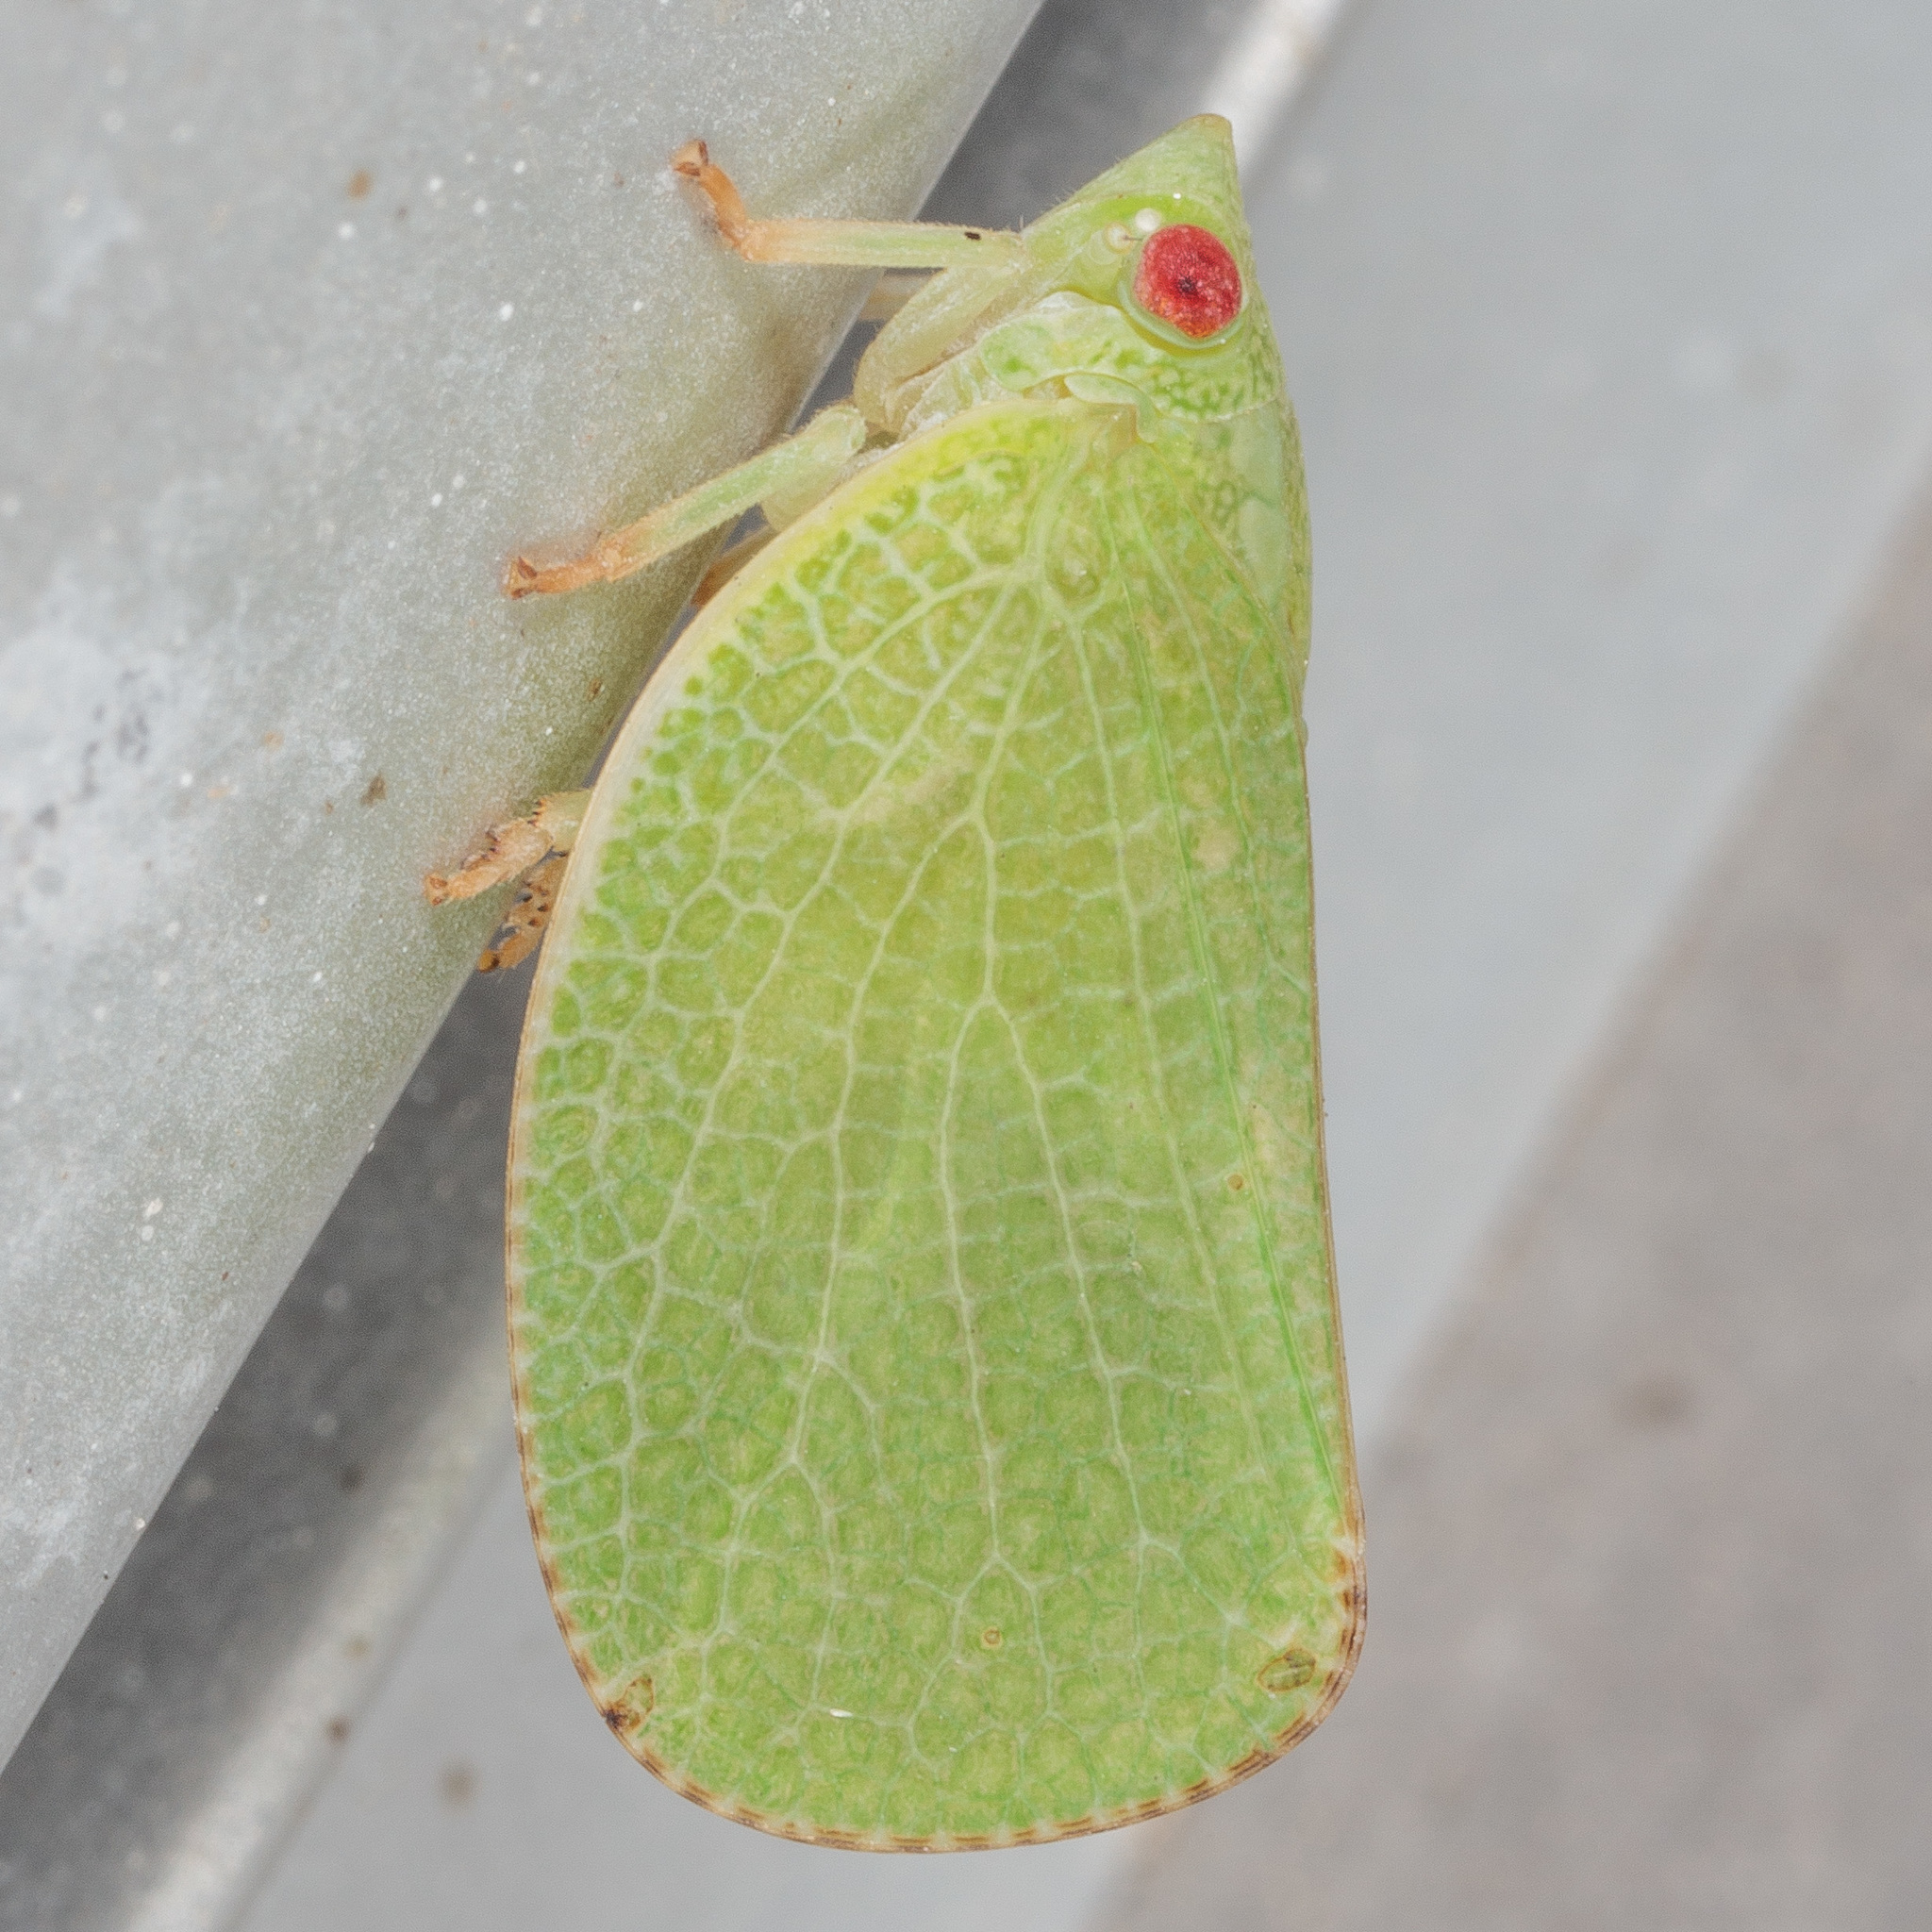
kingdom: Animalia
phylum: Arthropoda
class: Insecta
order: Hemiptera
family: Acanaloniidae
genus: Acanalonia
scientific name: Acanalonia conica
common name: Green cone-headed planthopper
